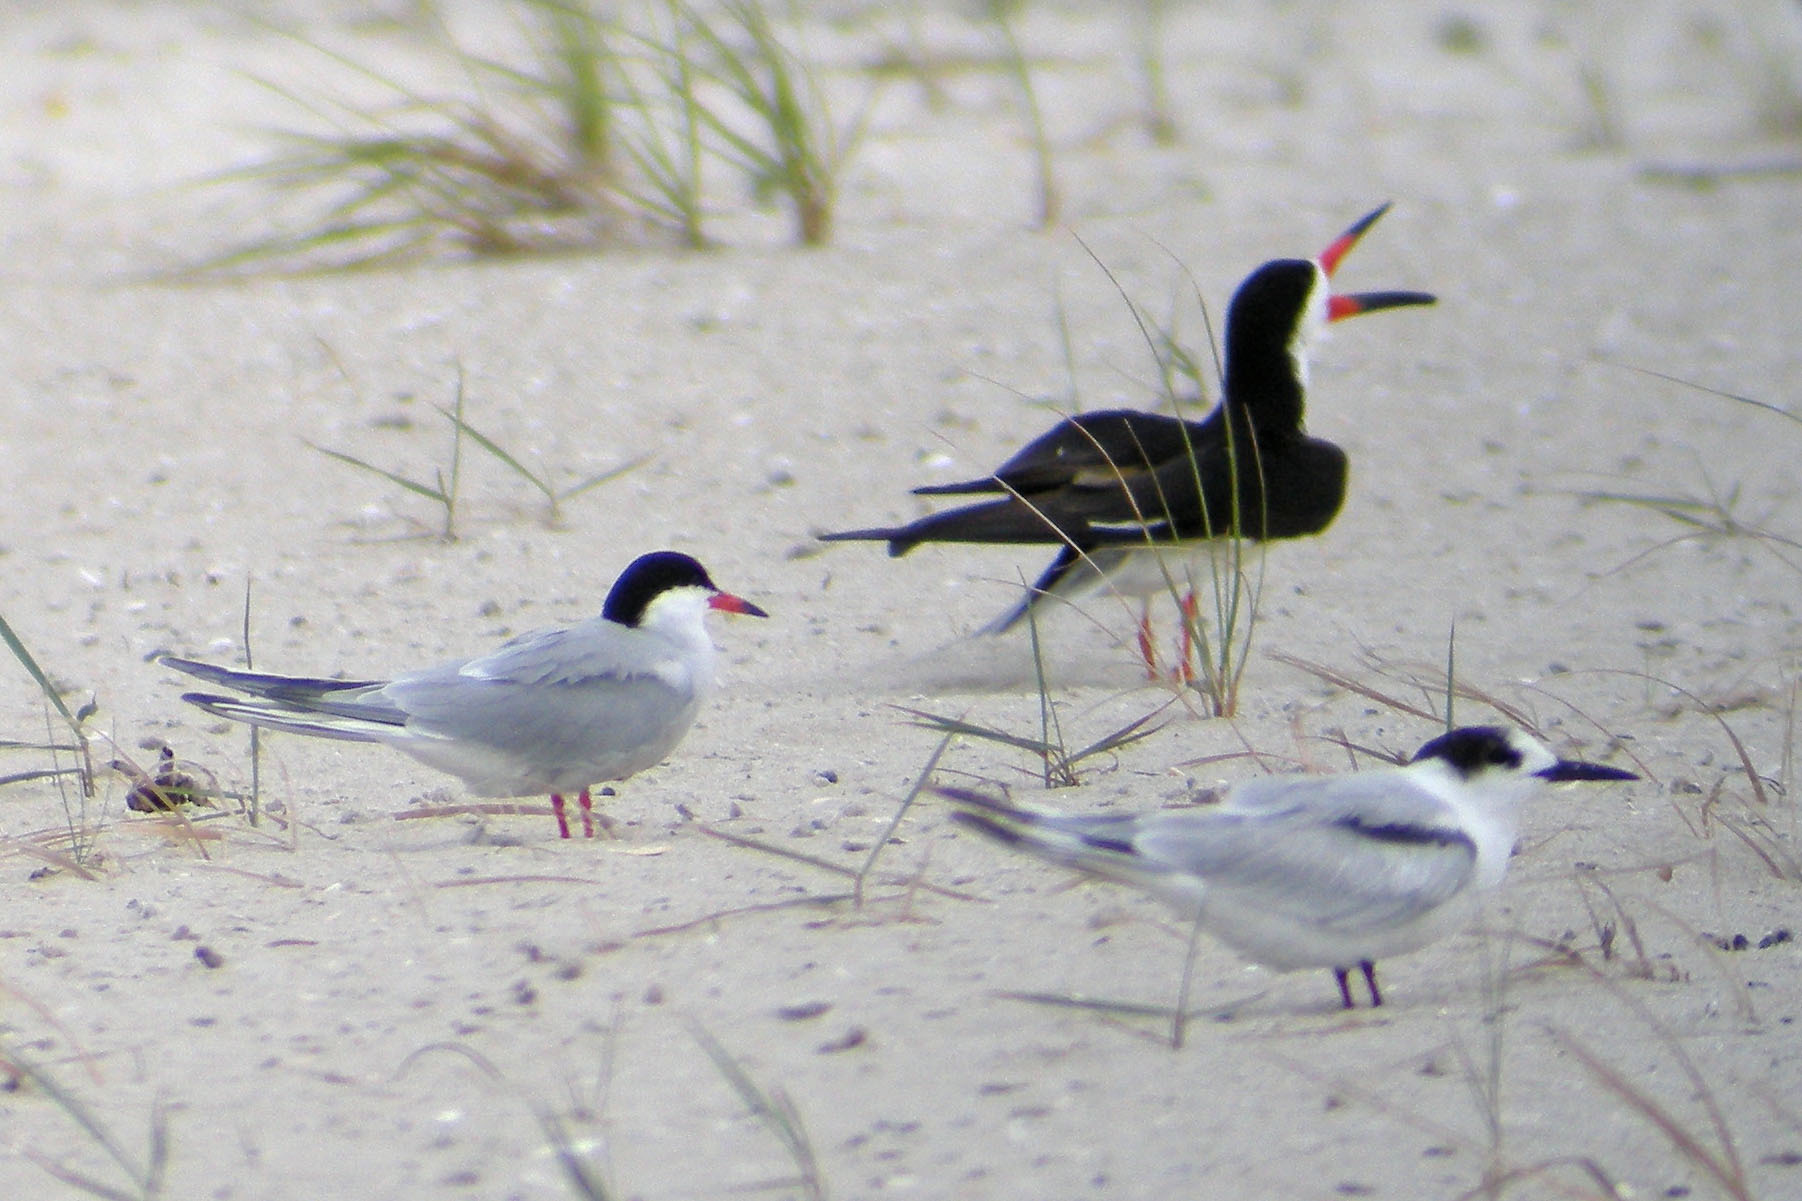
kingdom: Animalia
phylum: Chordata
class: Aves
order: Charadriiformes
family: Laridae
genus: Sterna
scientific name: Sterna hirundo
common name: Common tern
